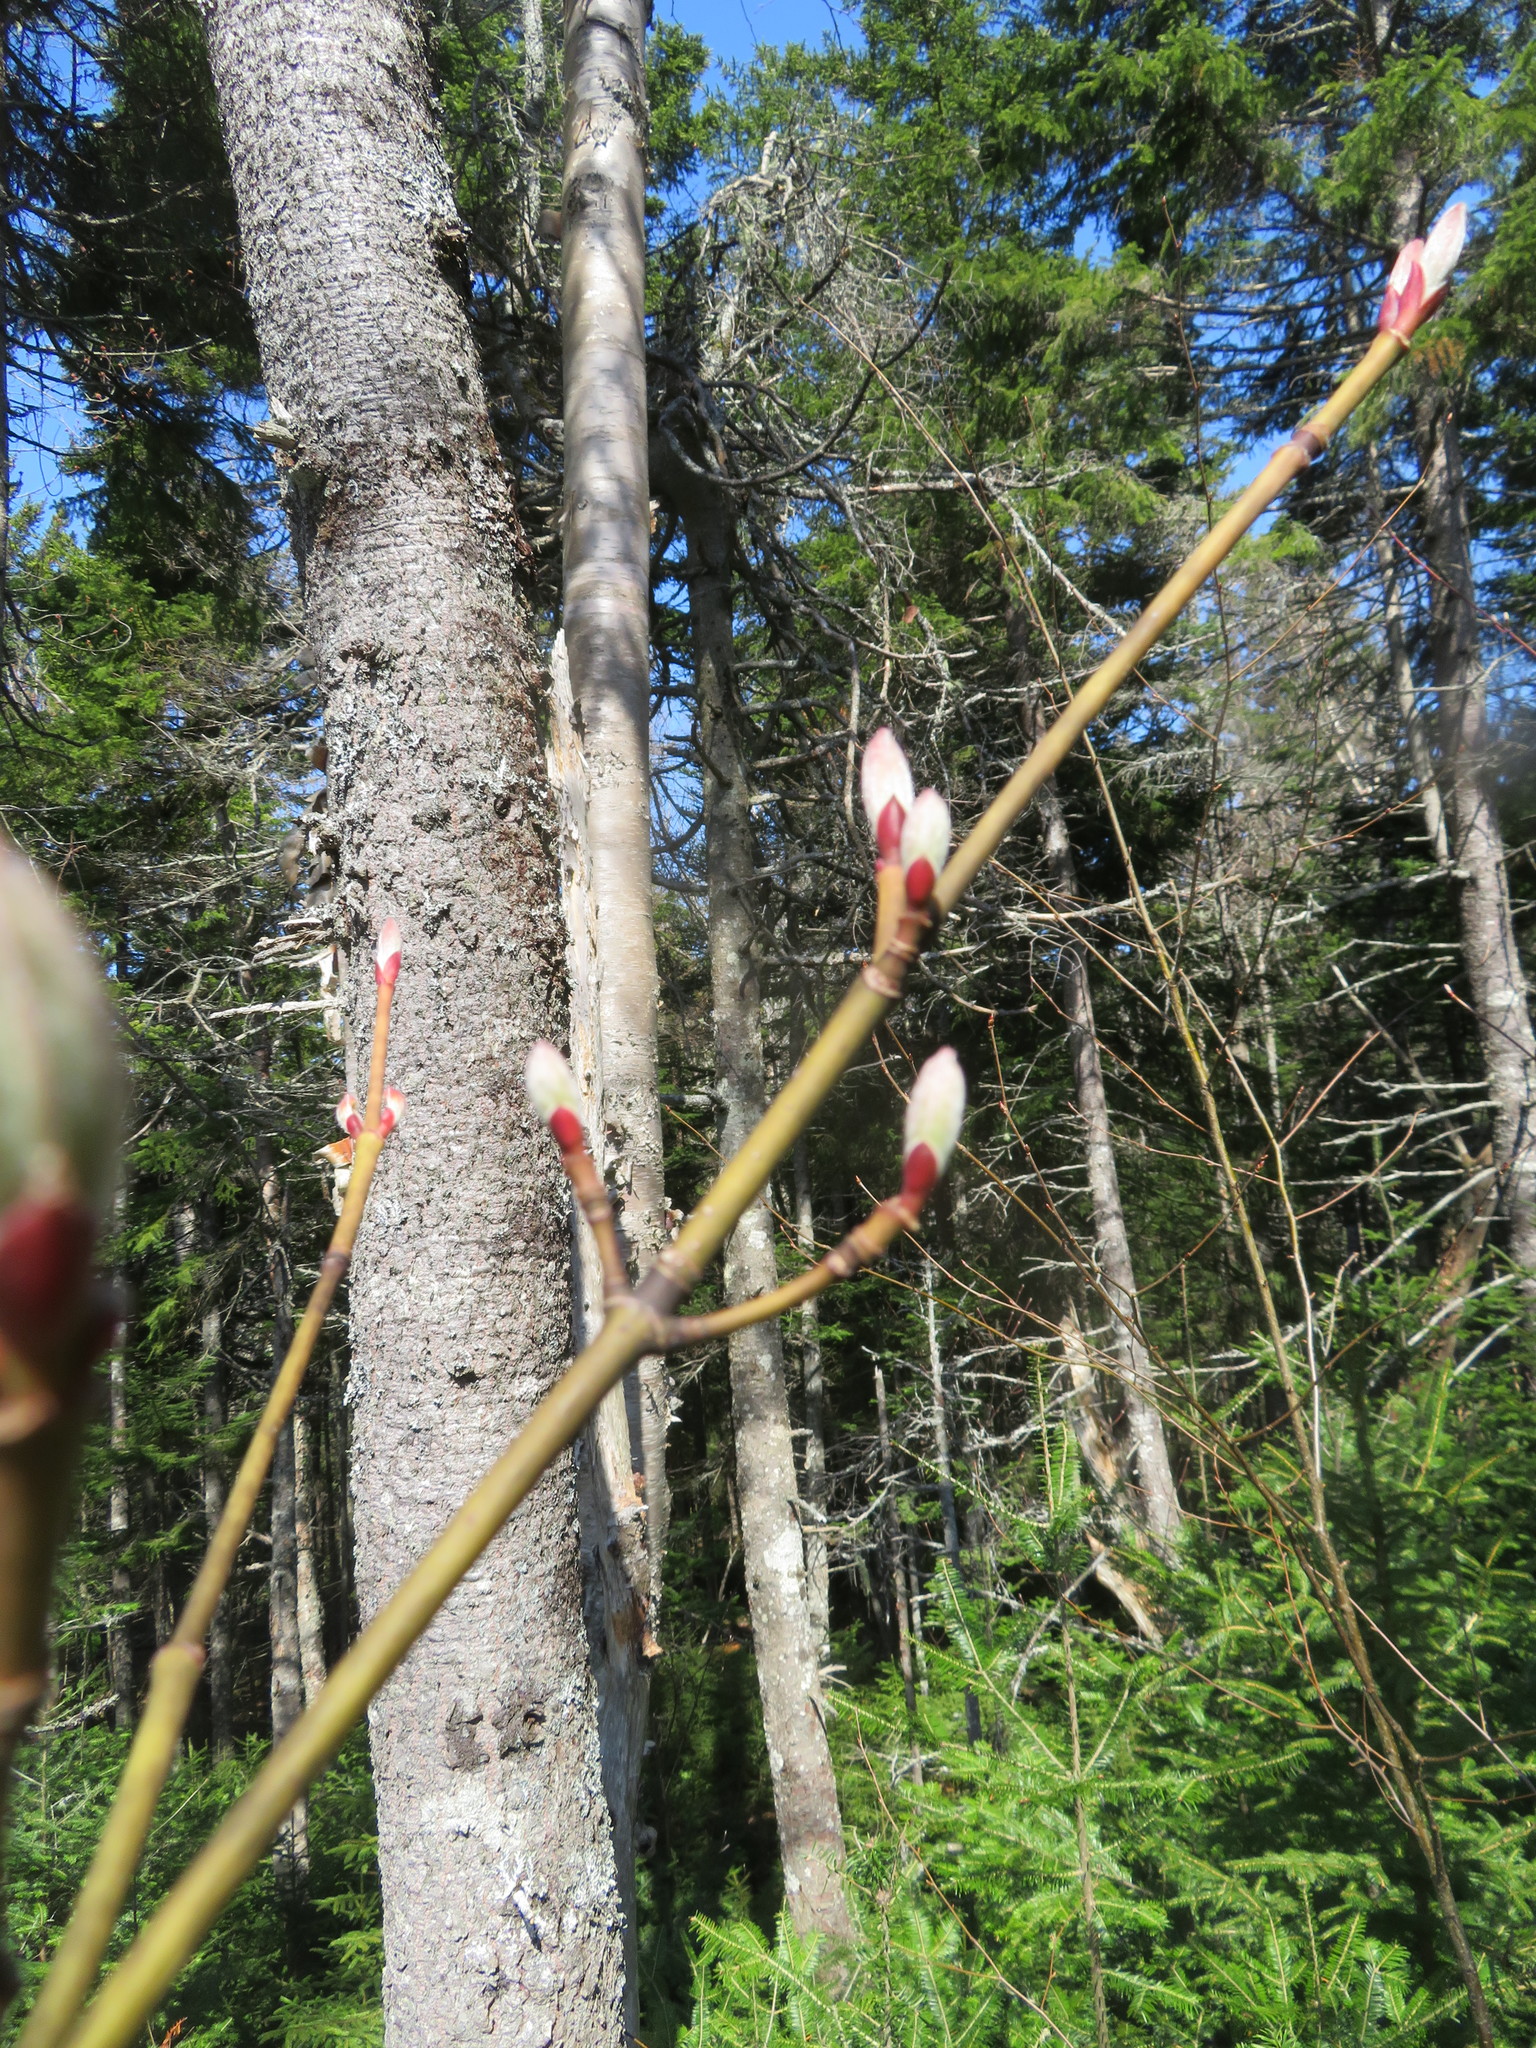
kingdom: Plantae
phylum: Tracheophyta
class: Magnoliopsida
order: Sapindales
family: Sapindaceae
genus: Acer
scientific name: Acer pensylvanicum
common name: Moosewood
